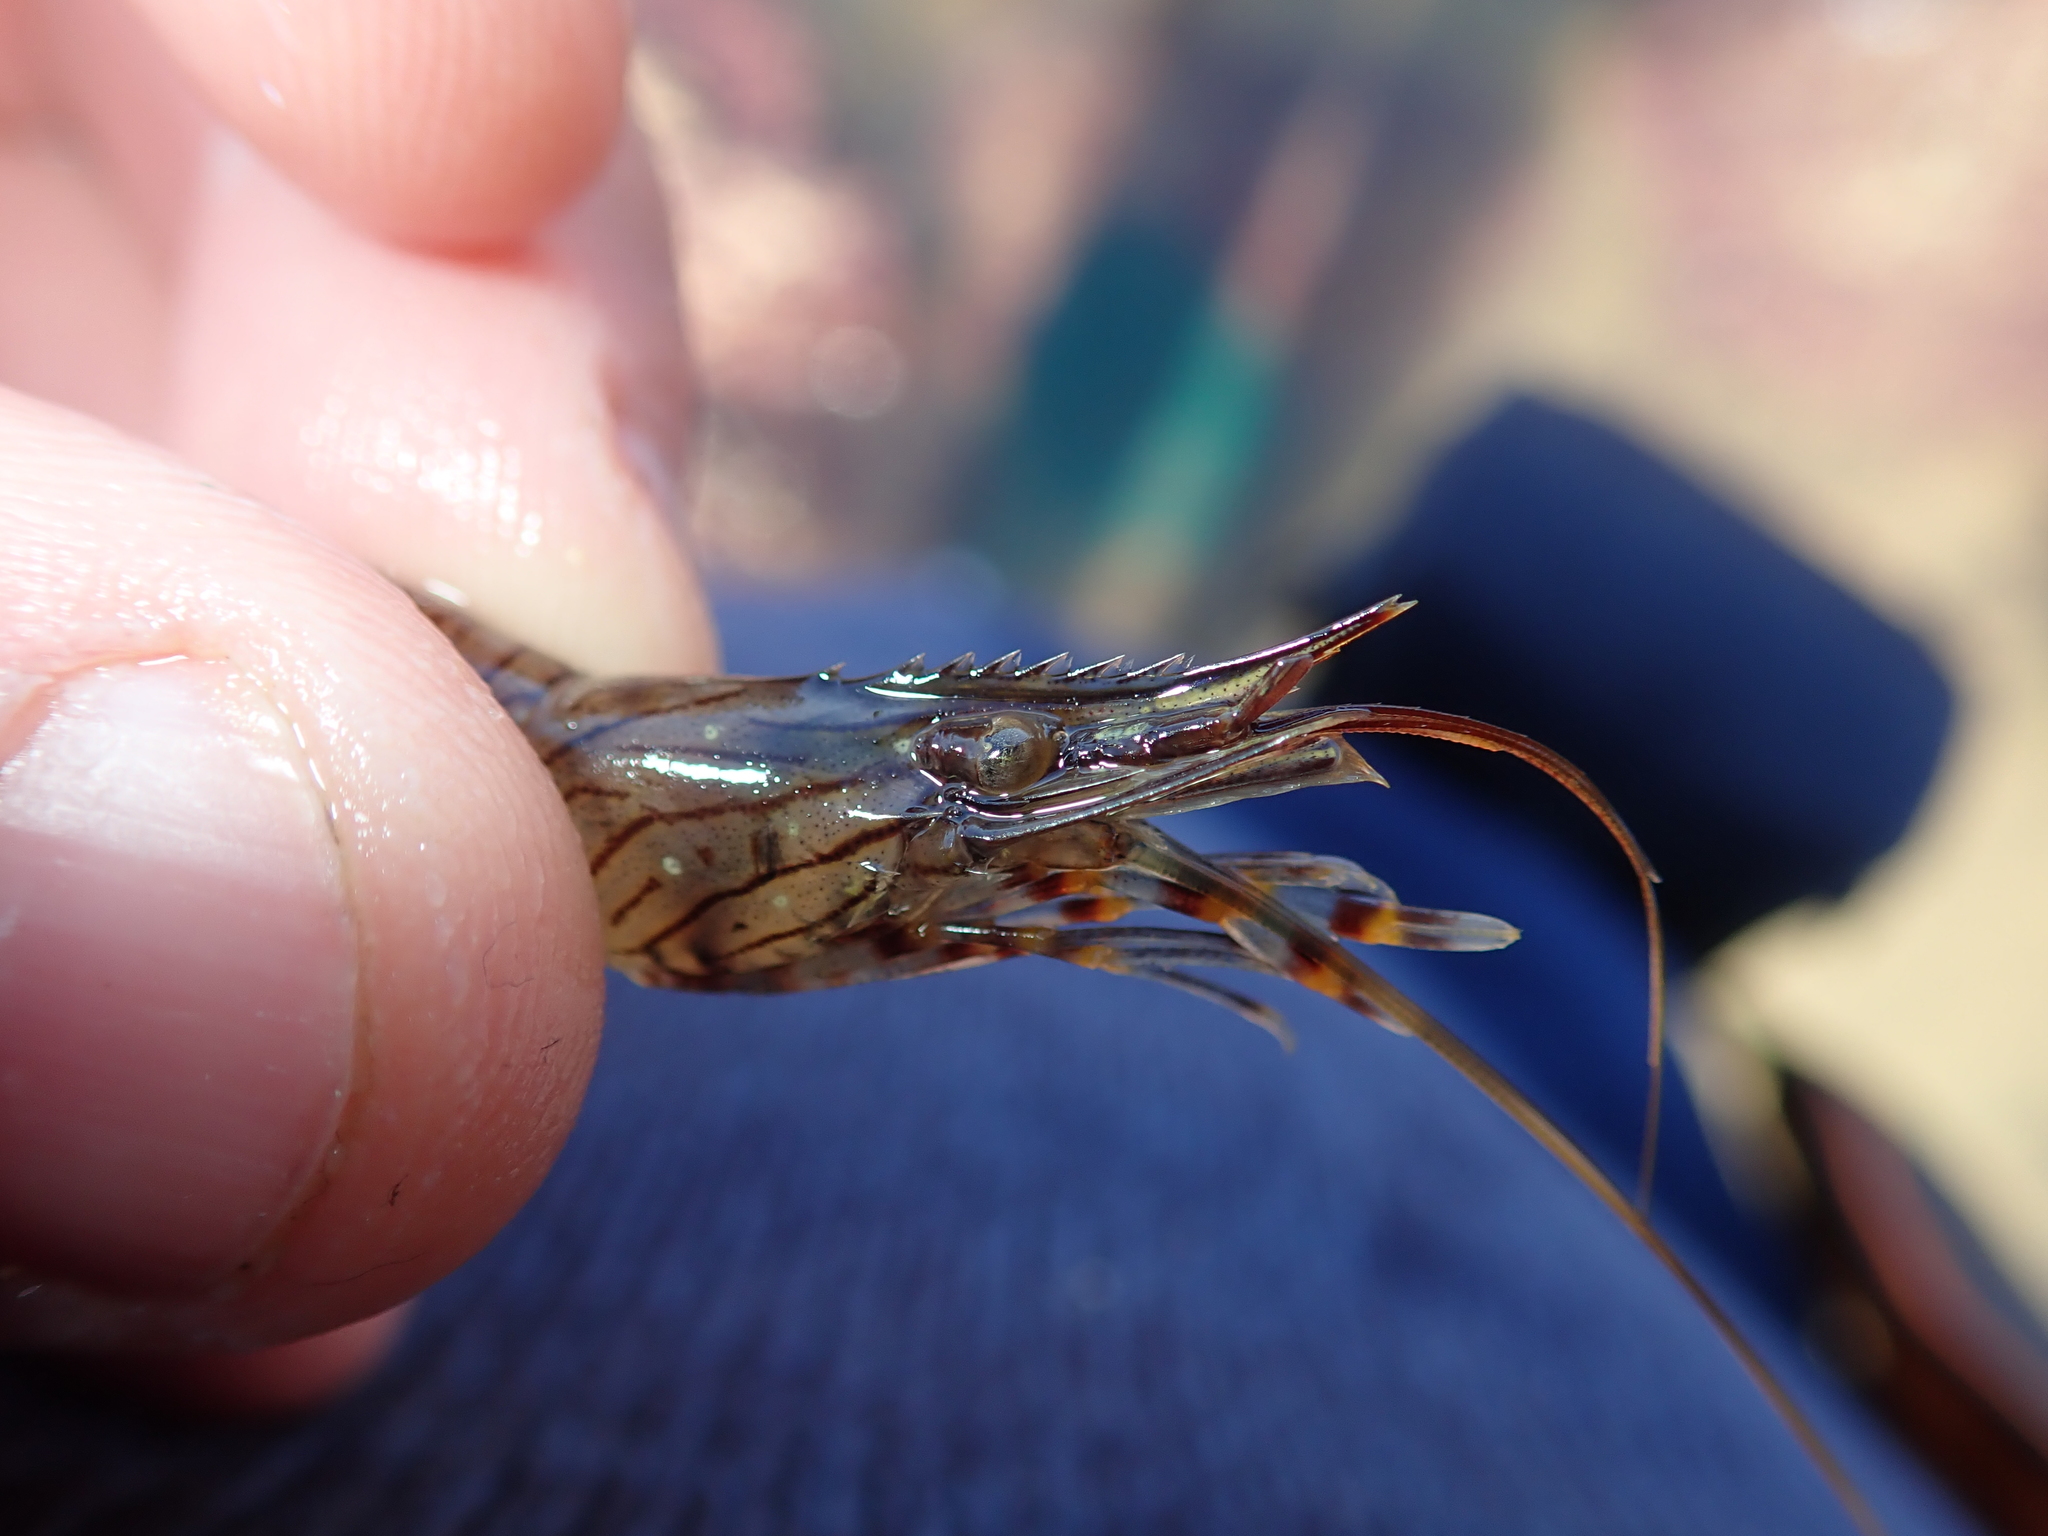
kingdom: Animalia
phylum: Arthropoda
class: Malacostraca
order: Decapoda
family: Palaemonidae
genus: Palaemon
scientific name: Palaemon serratus
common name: Common prawn
